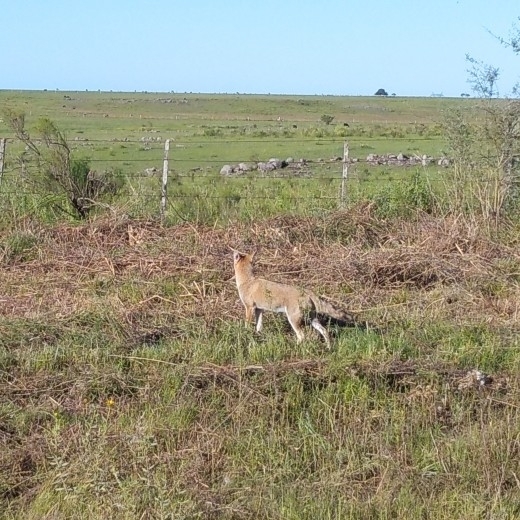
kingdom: Animalia
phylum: Chordata
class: Mammalia
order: Carnivora
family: Canidae
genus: Lycalopex
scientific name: Lycalopex gymnocercus
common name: Pampas fox
